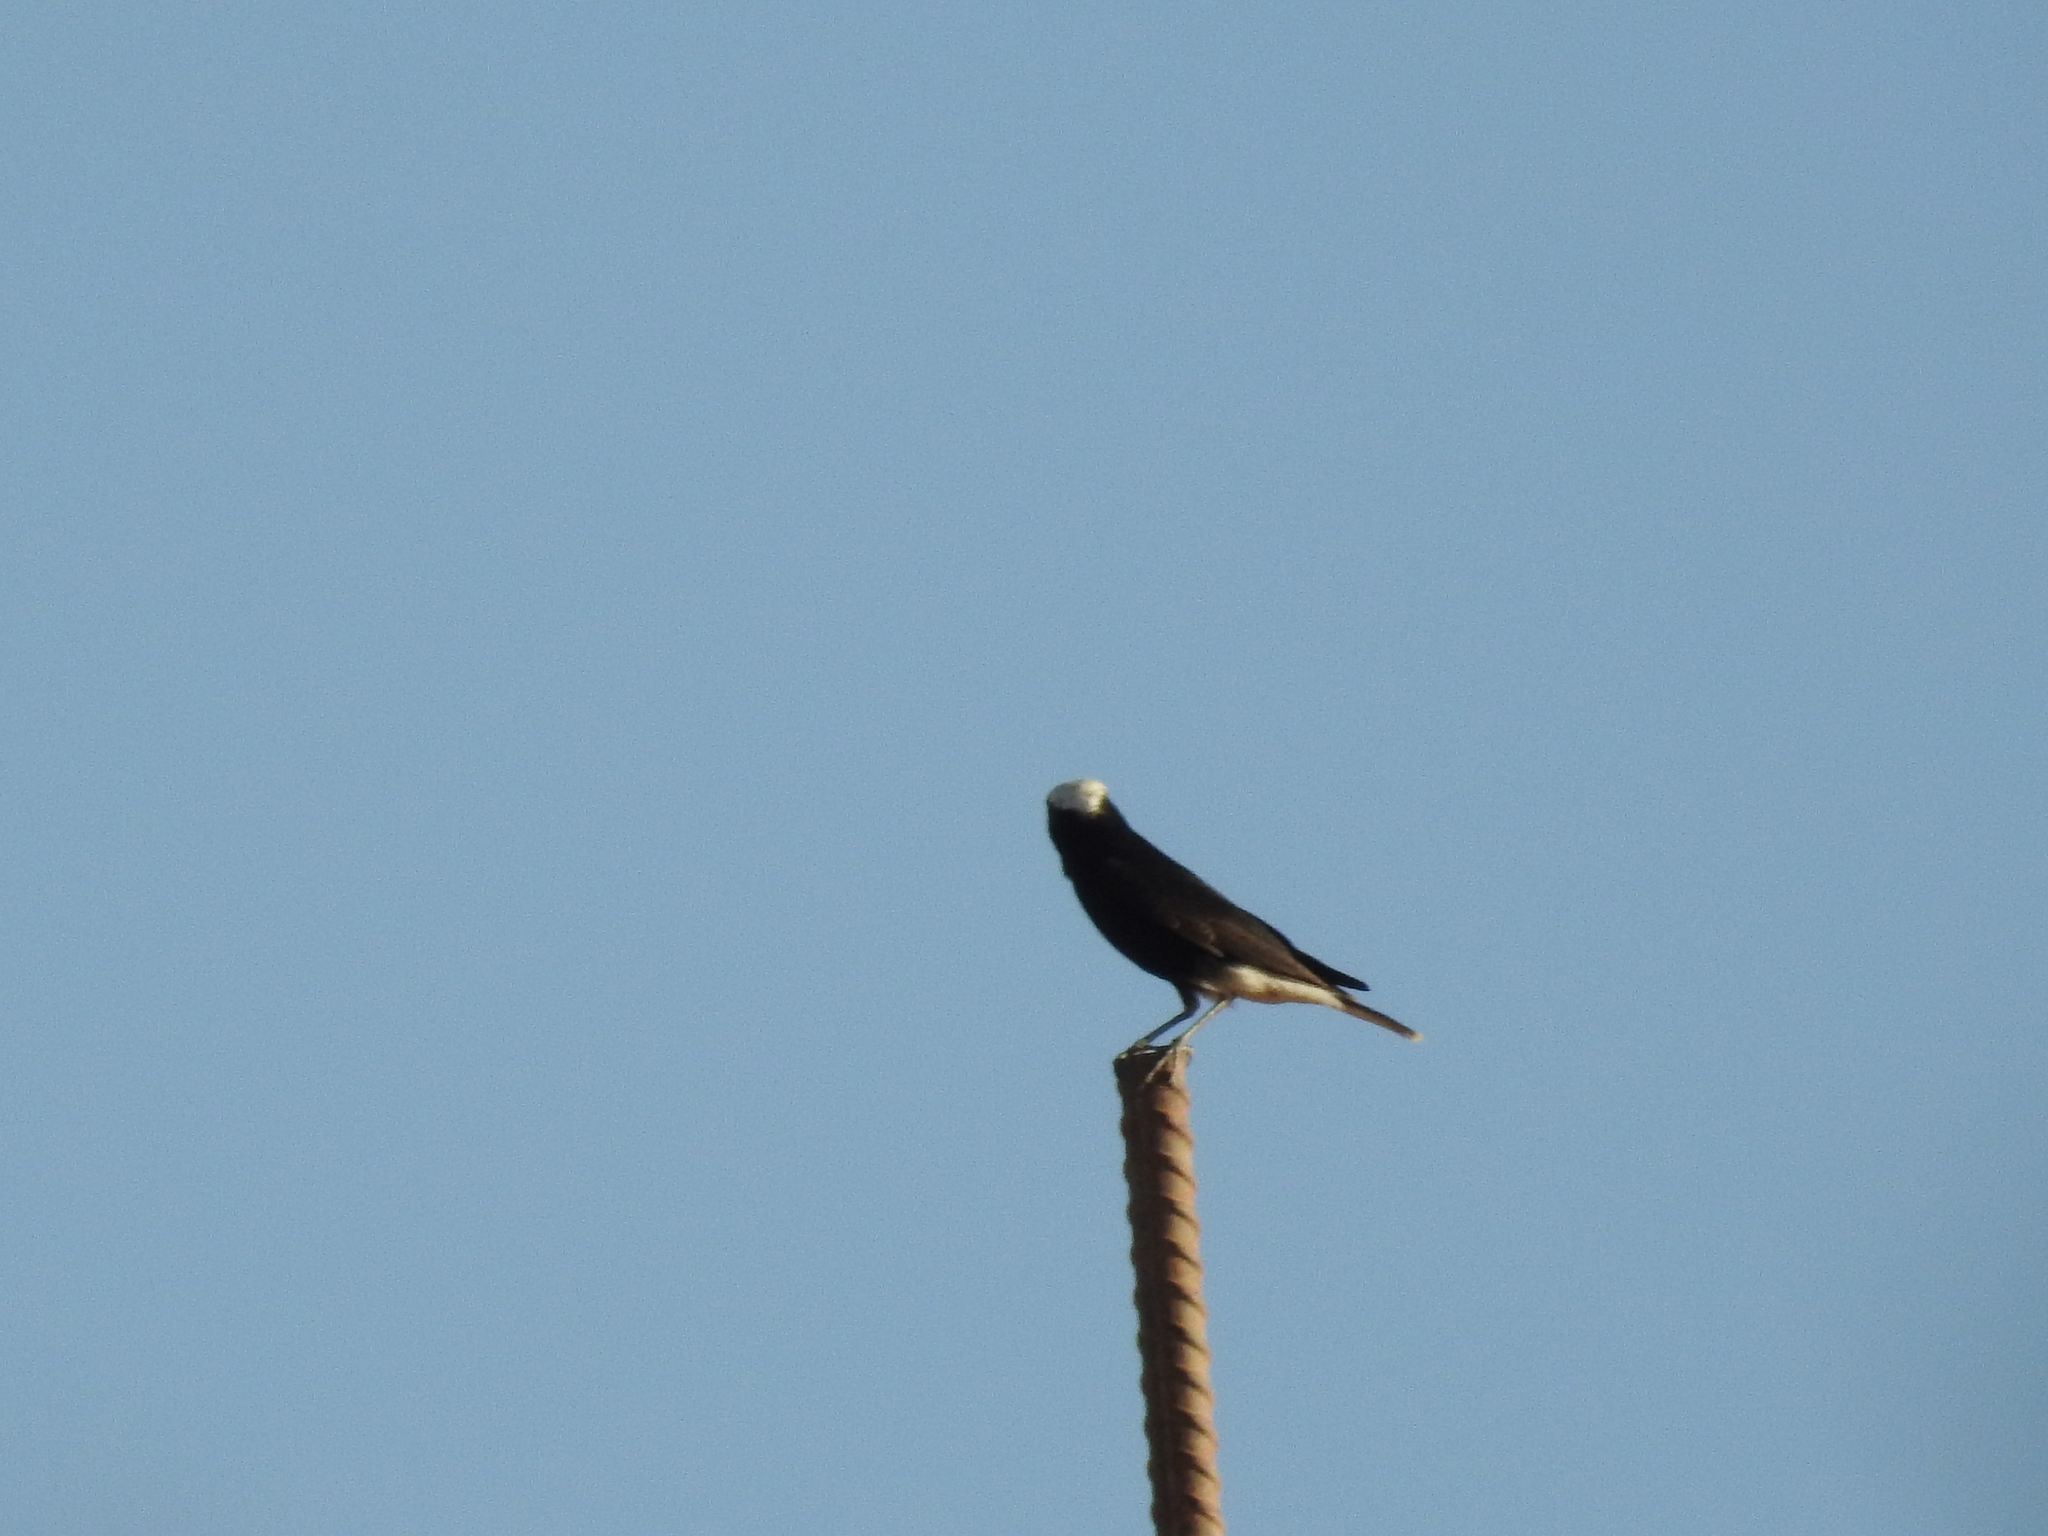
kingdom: Animalia
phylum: Chordata
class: Aves
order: Passeriformes
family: Muscicapidae
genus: Oenanthe
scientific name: Oenanthe leucopyga
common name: White-crowned wheatear
